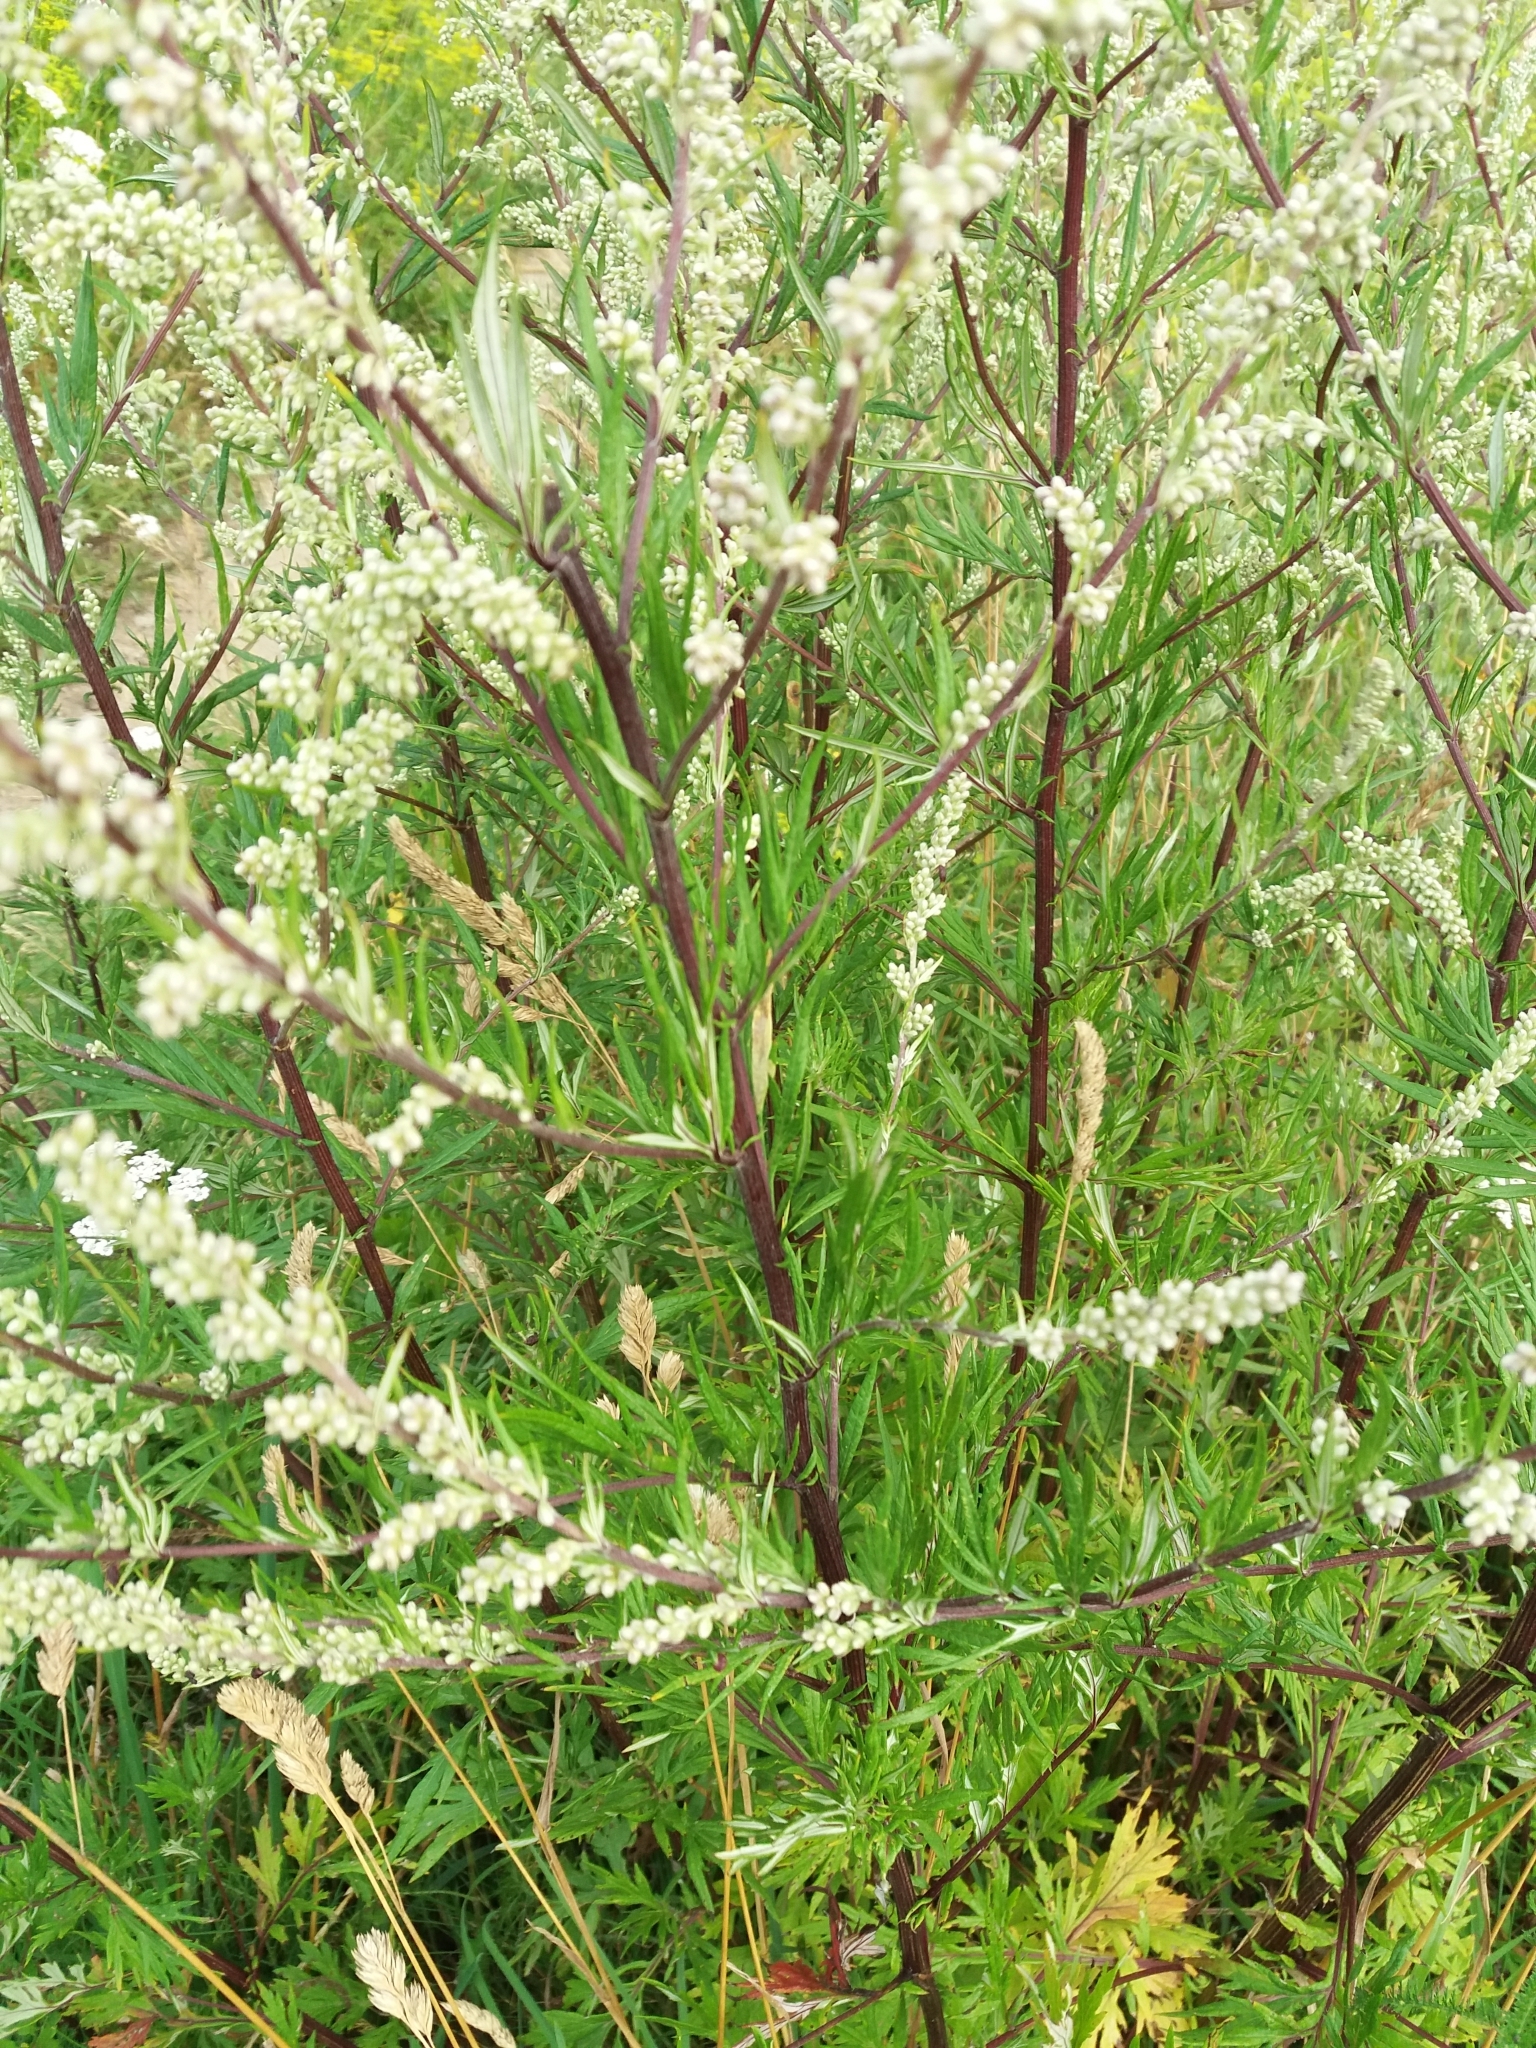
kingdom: Plantae
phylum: Tracheophyta
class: Magnoliopsida
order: Asterales
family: Asteraceae
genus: Artemisia
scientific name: Artemisia vulgaris
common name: Mugwort
